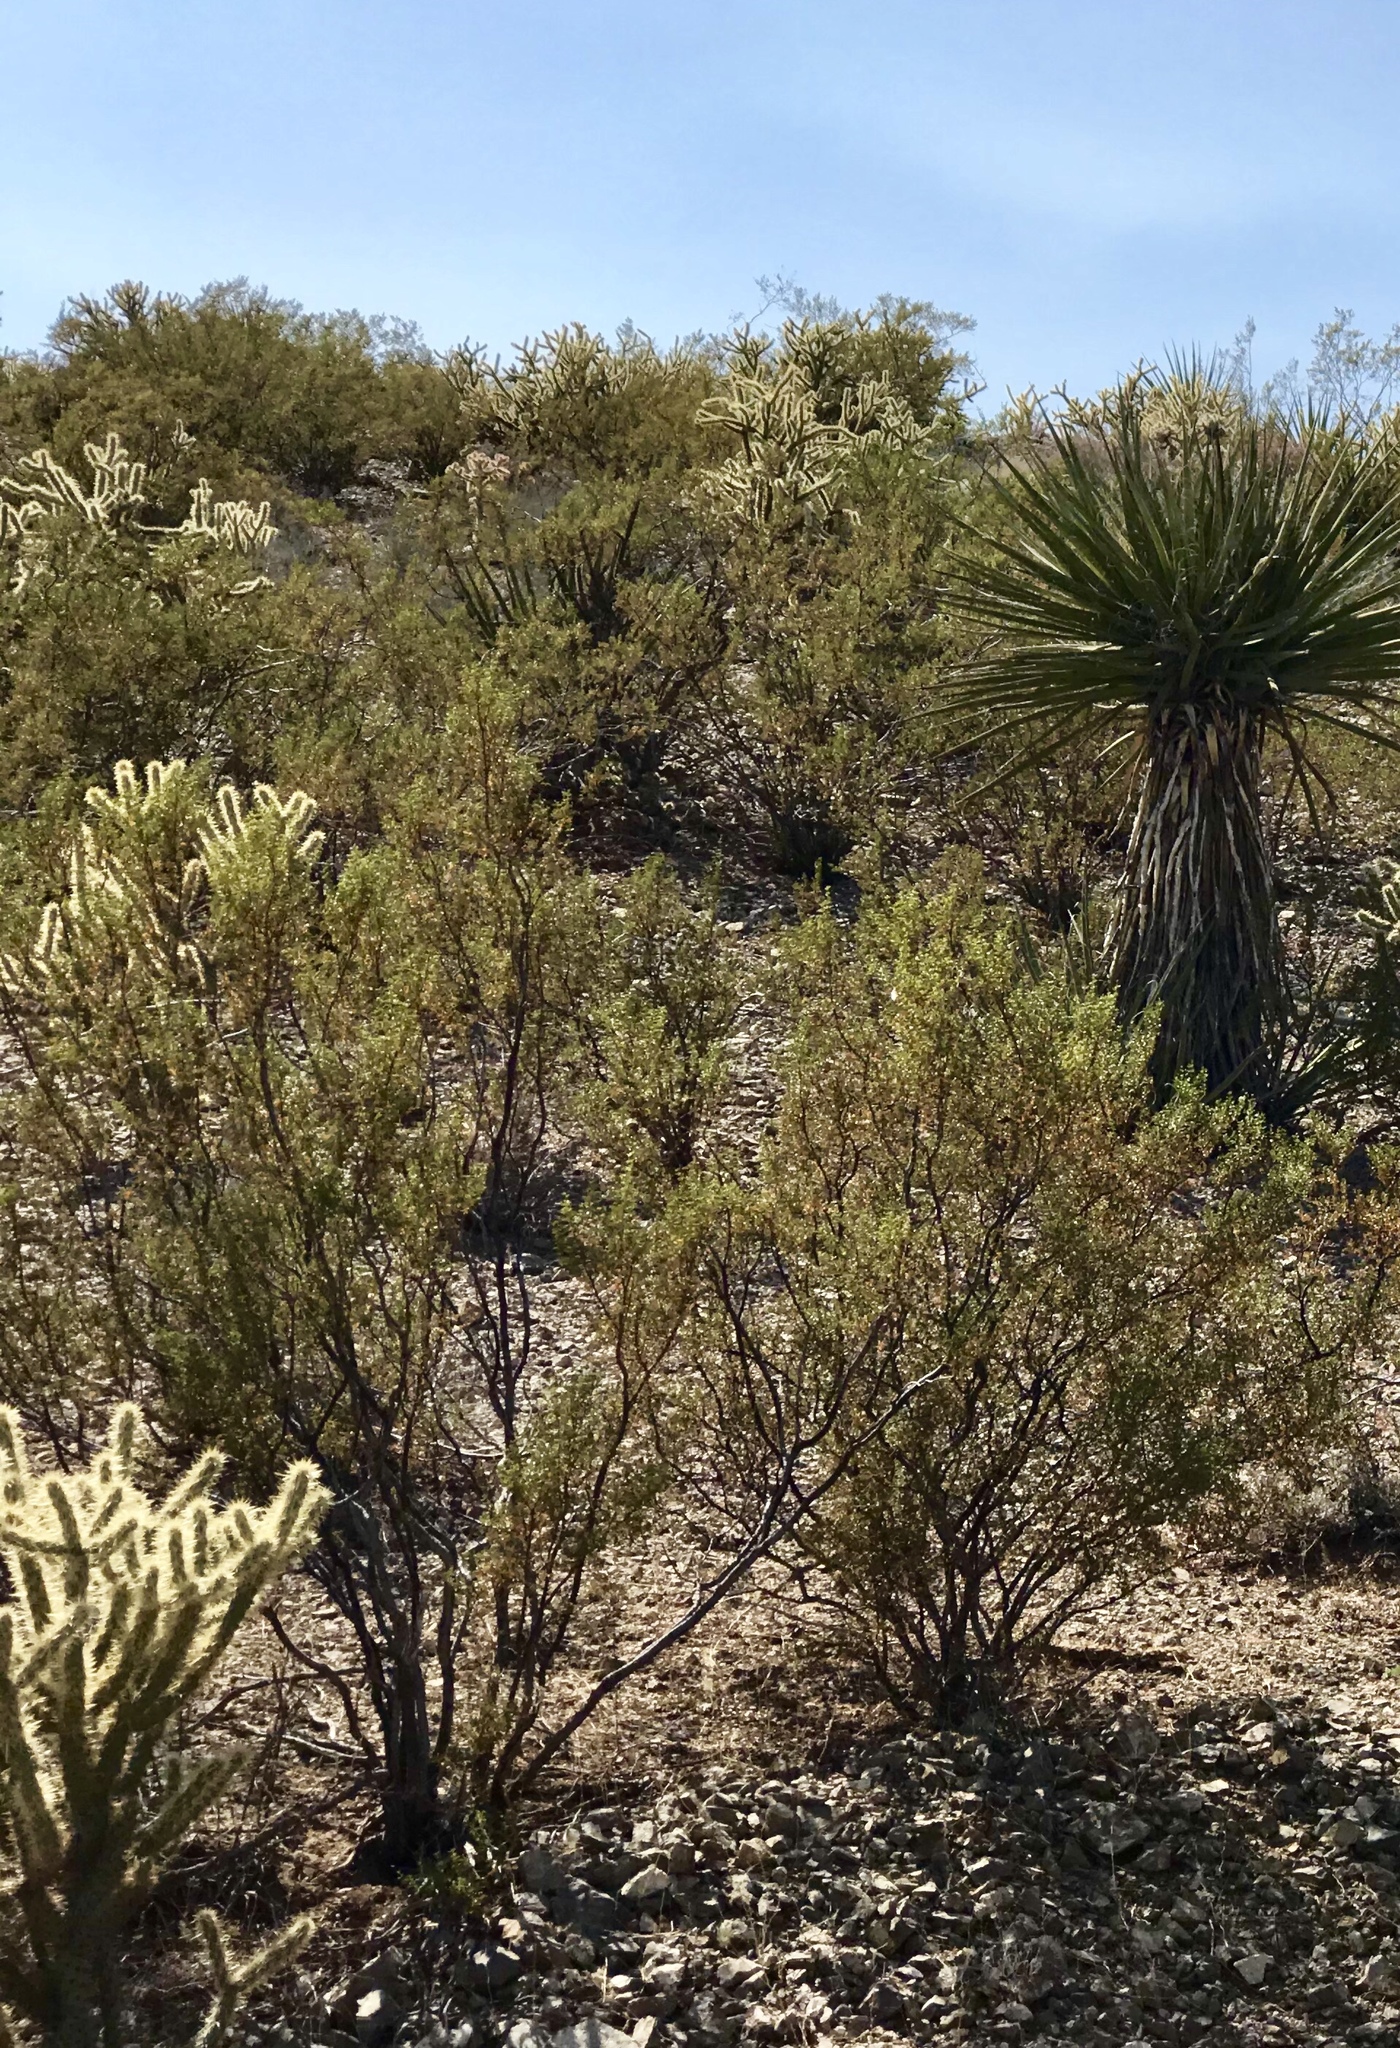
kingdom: Plantae
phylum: Tracheophyta
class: Magnoliopsida
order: Zygophyllales
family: Zygophyllaceae
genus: Larrea
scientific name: Larrea tridentata
